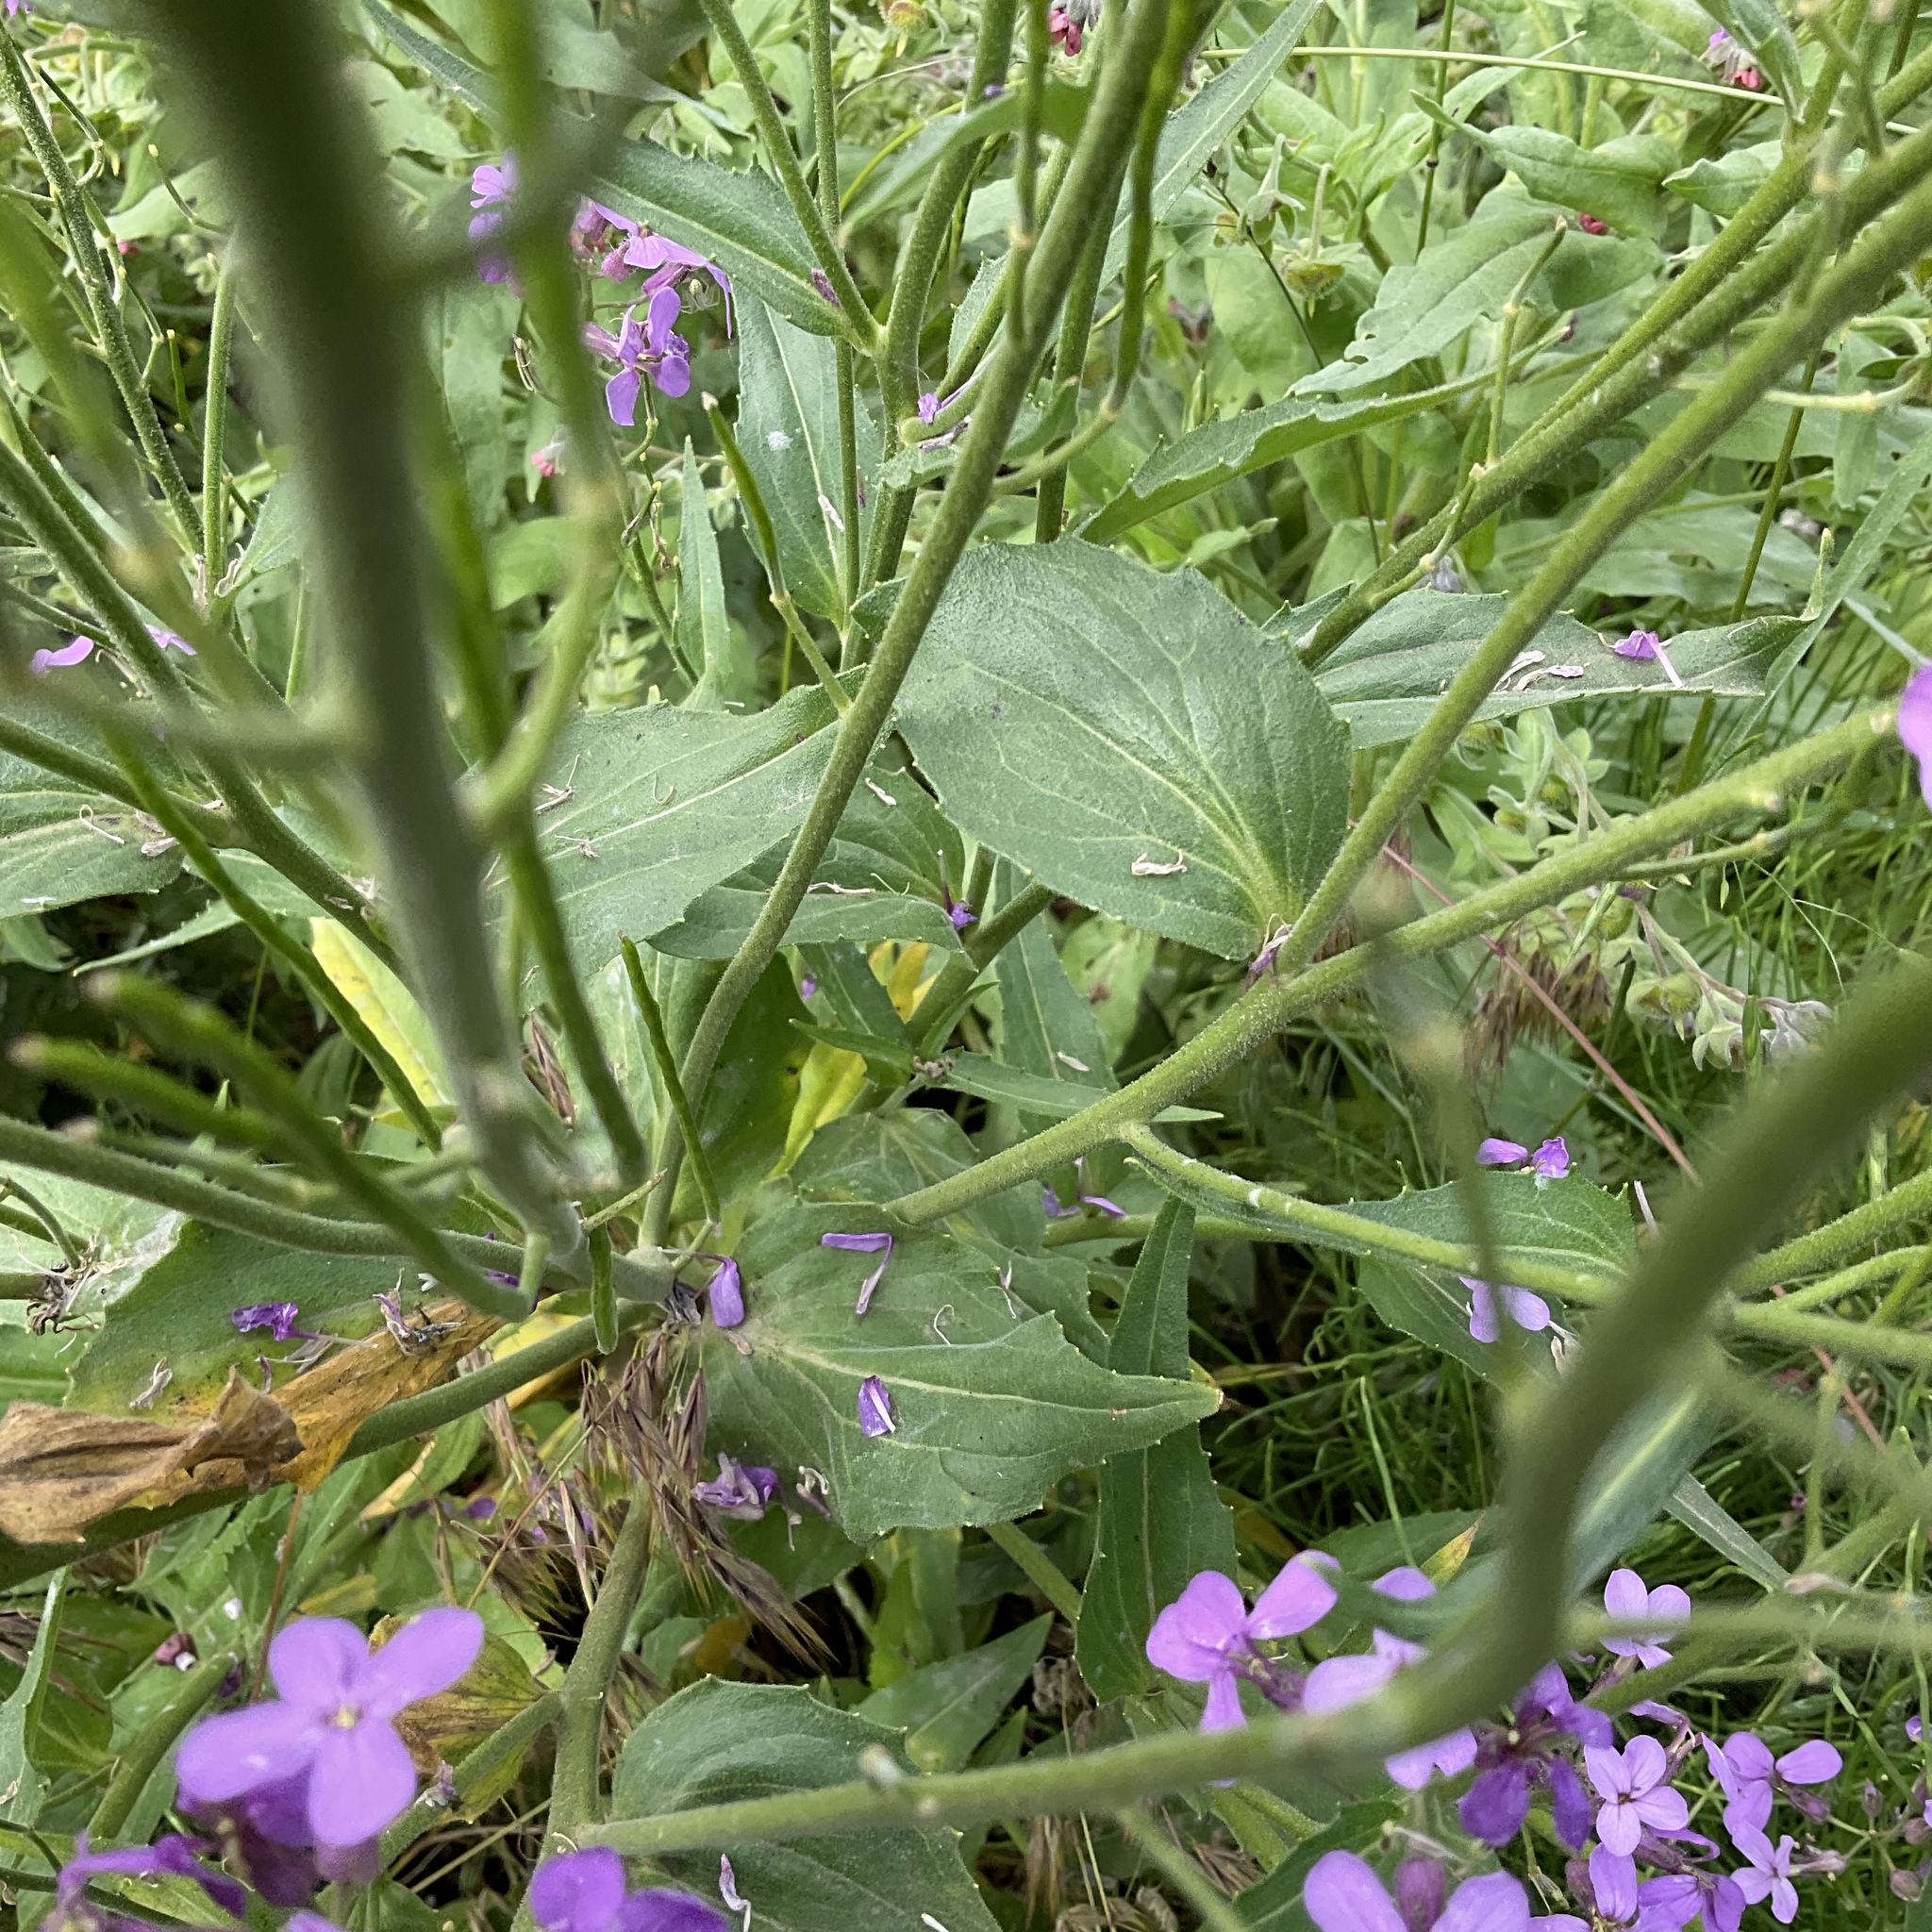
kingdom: Plantae
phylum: Tracheophyta
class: Magnoliopsida
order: Brassicales
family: Brassicaceae
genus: Hesperis
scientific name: Hesperis matronalis
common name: Dame's-violet
